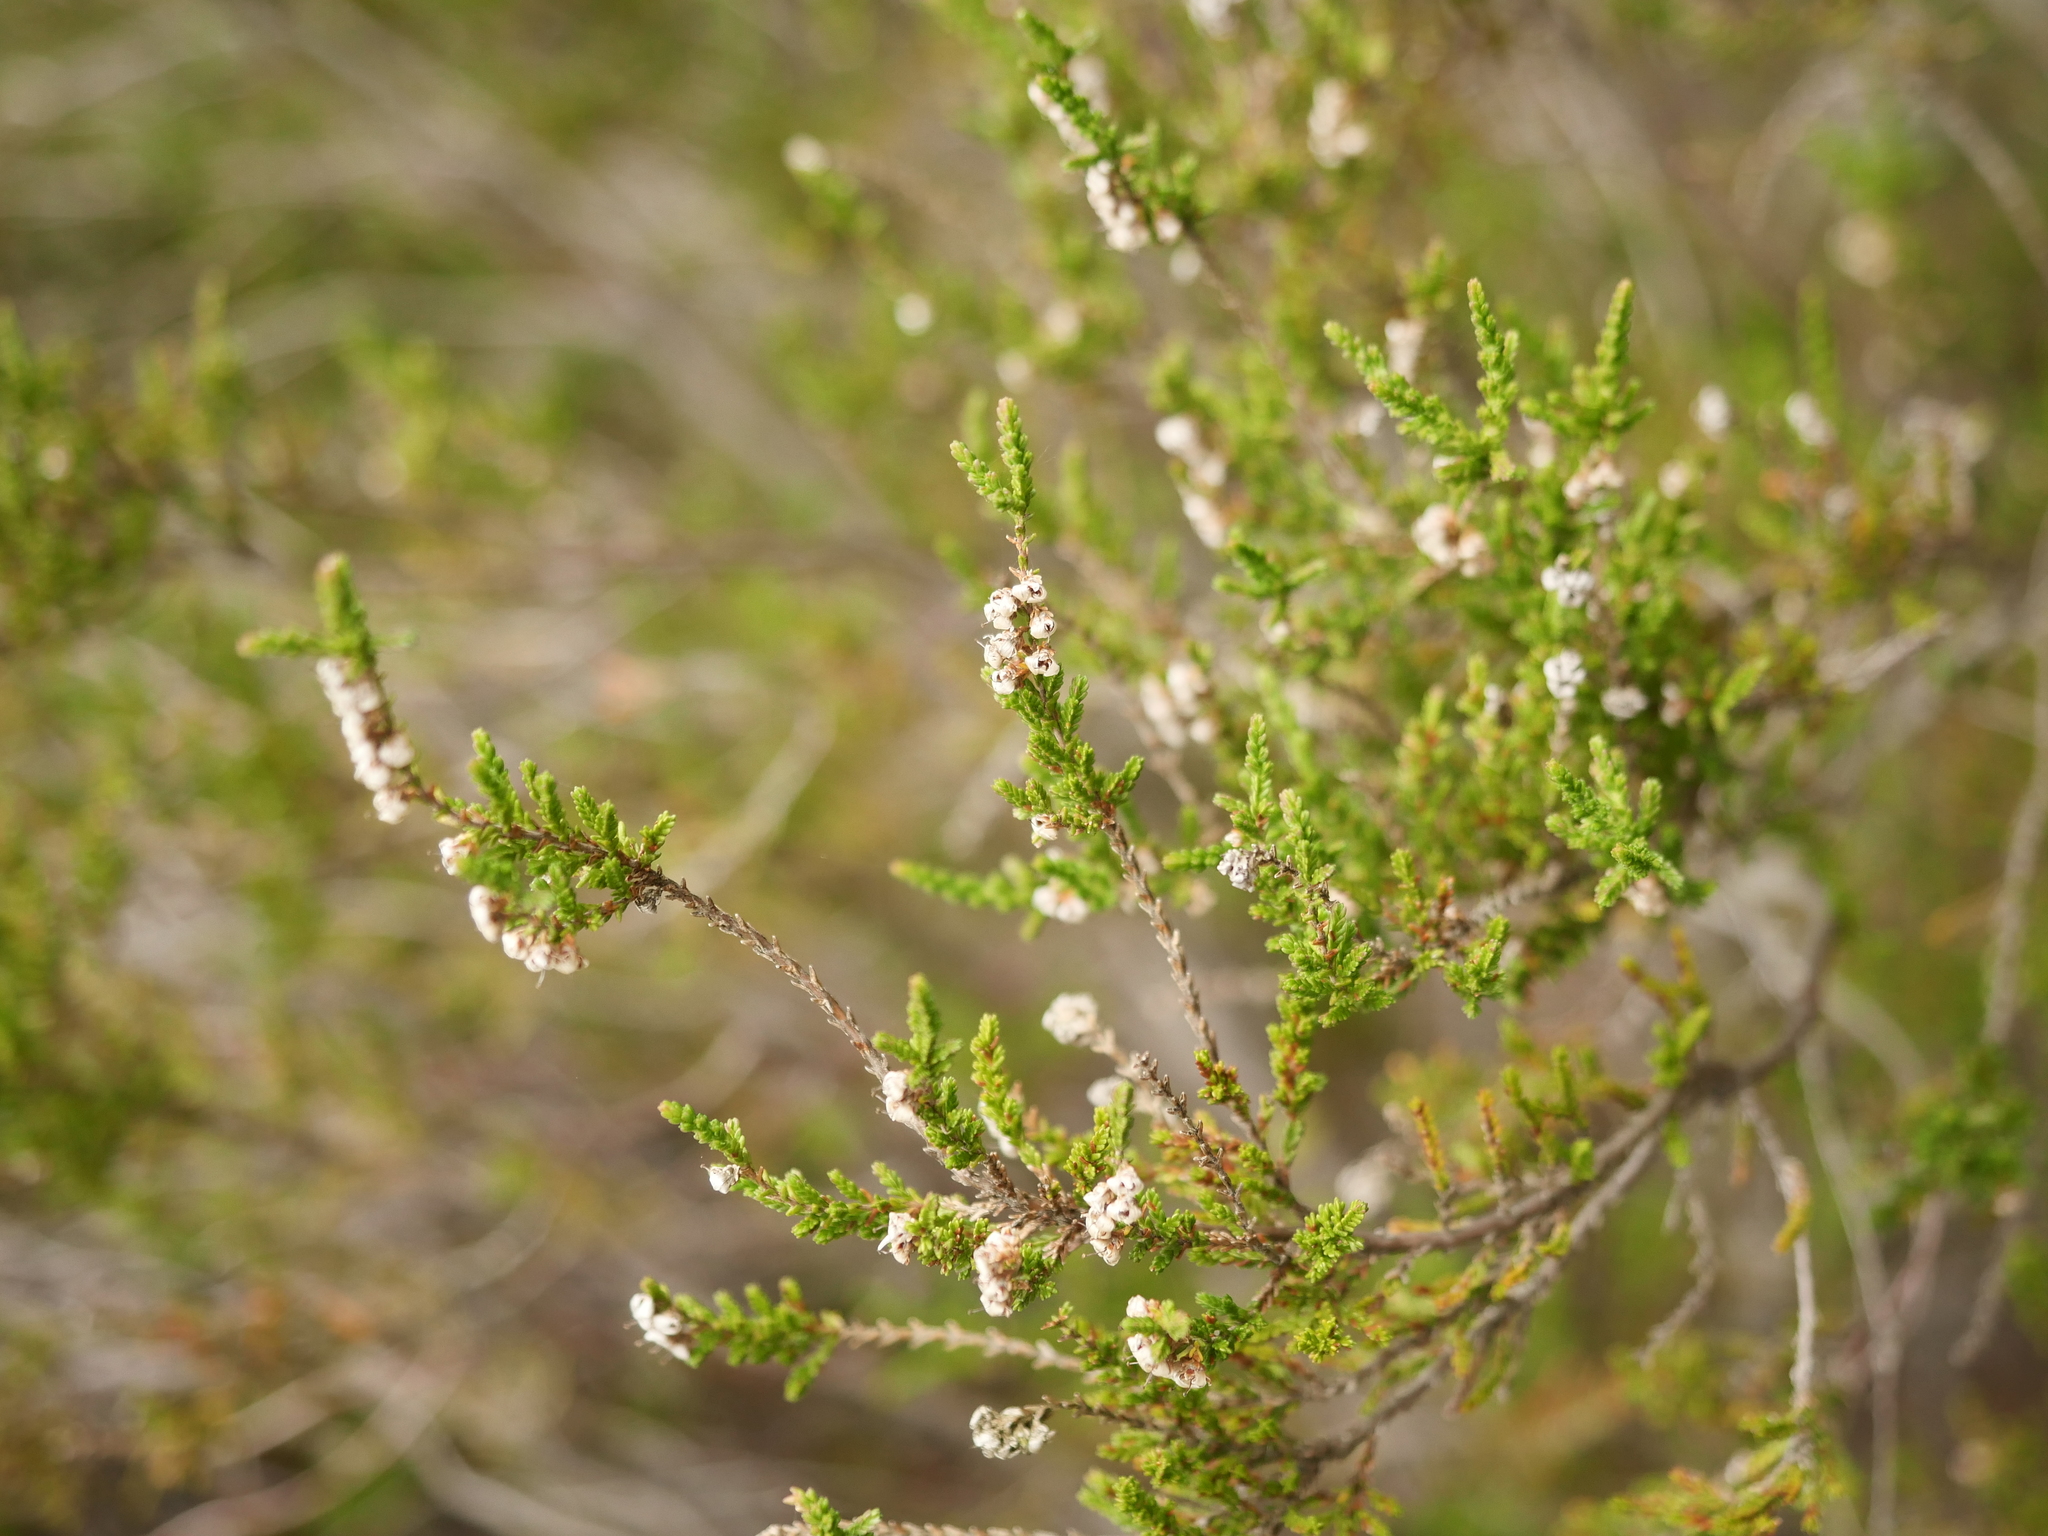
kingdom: Plantae
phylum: Tracheophyta
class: Magnoliopsida
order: Ericales
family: Ericaceae
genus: Calluna
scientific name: Calluna vulgaris
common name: Heather
